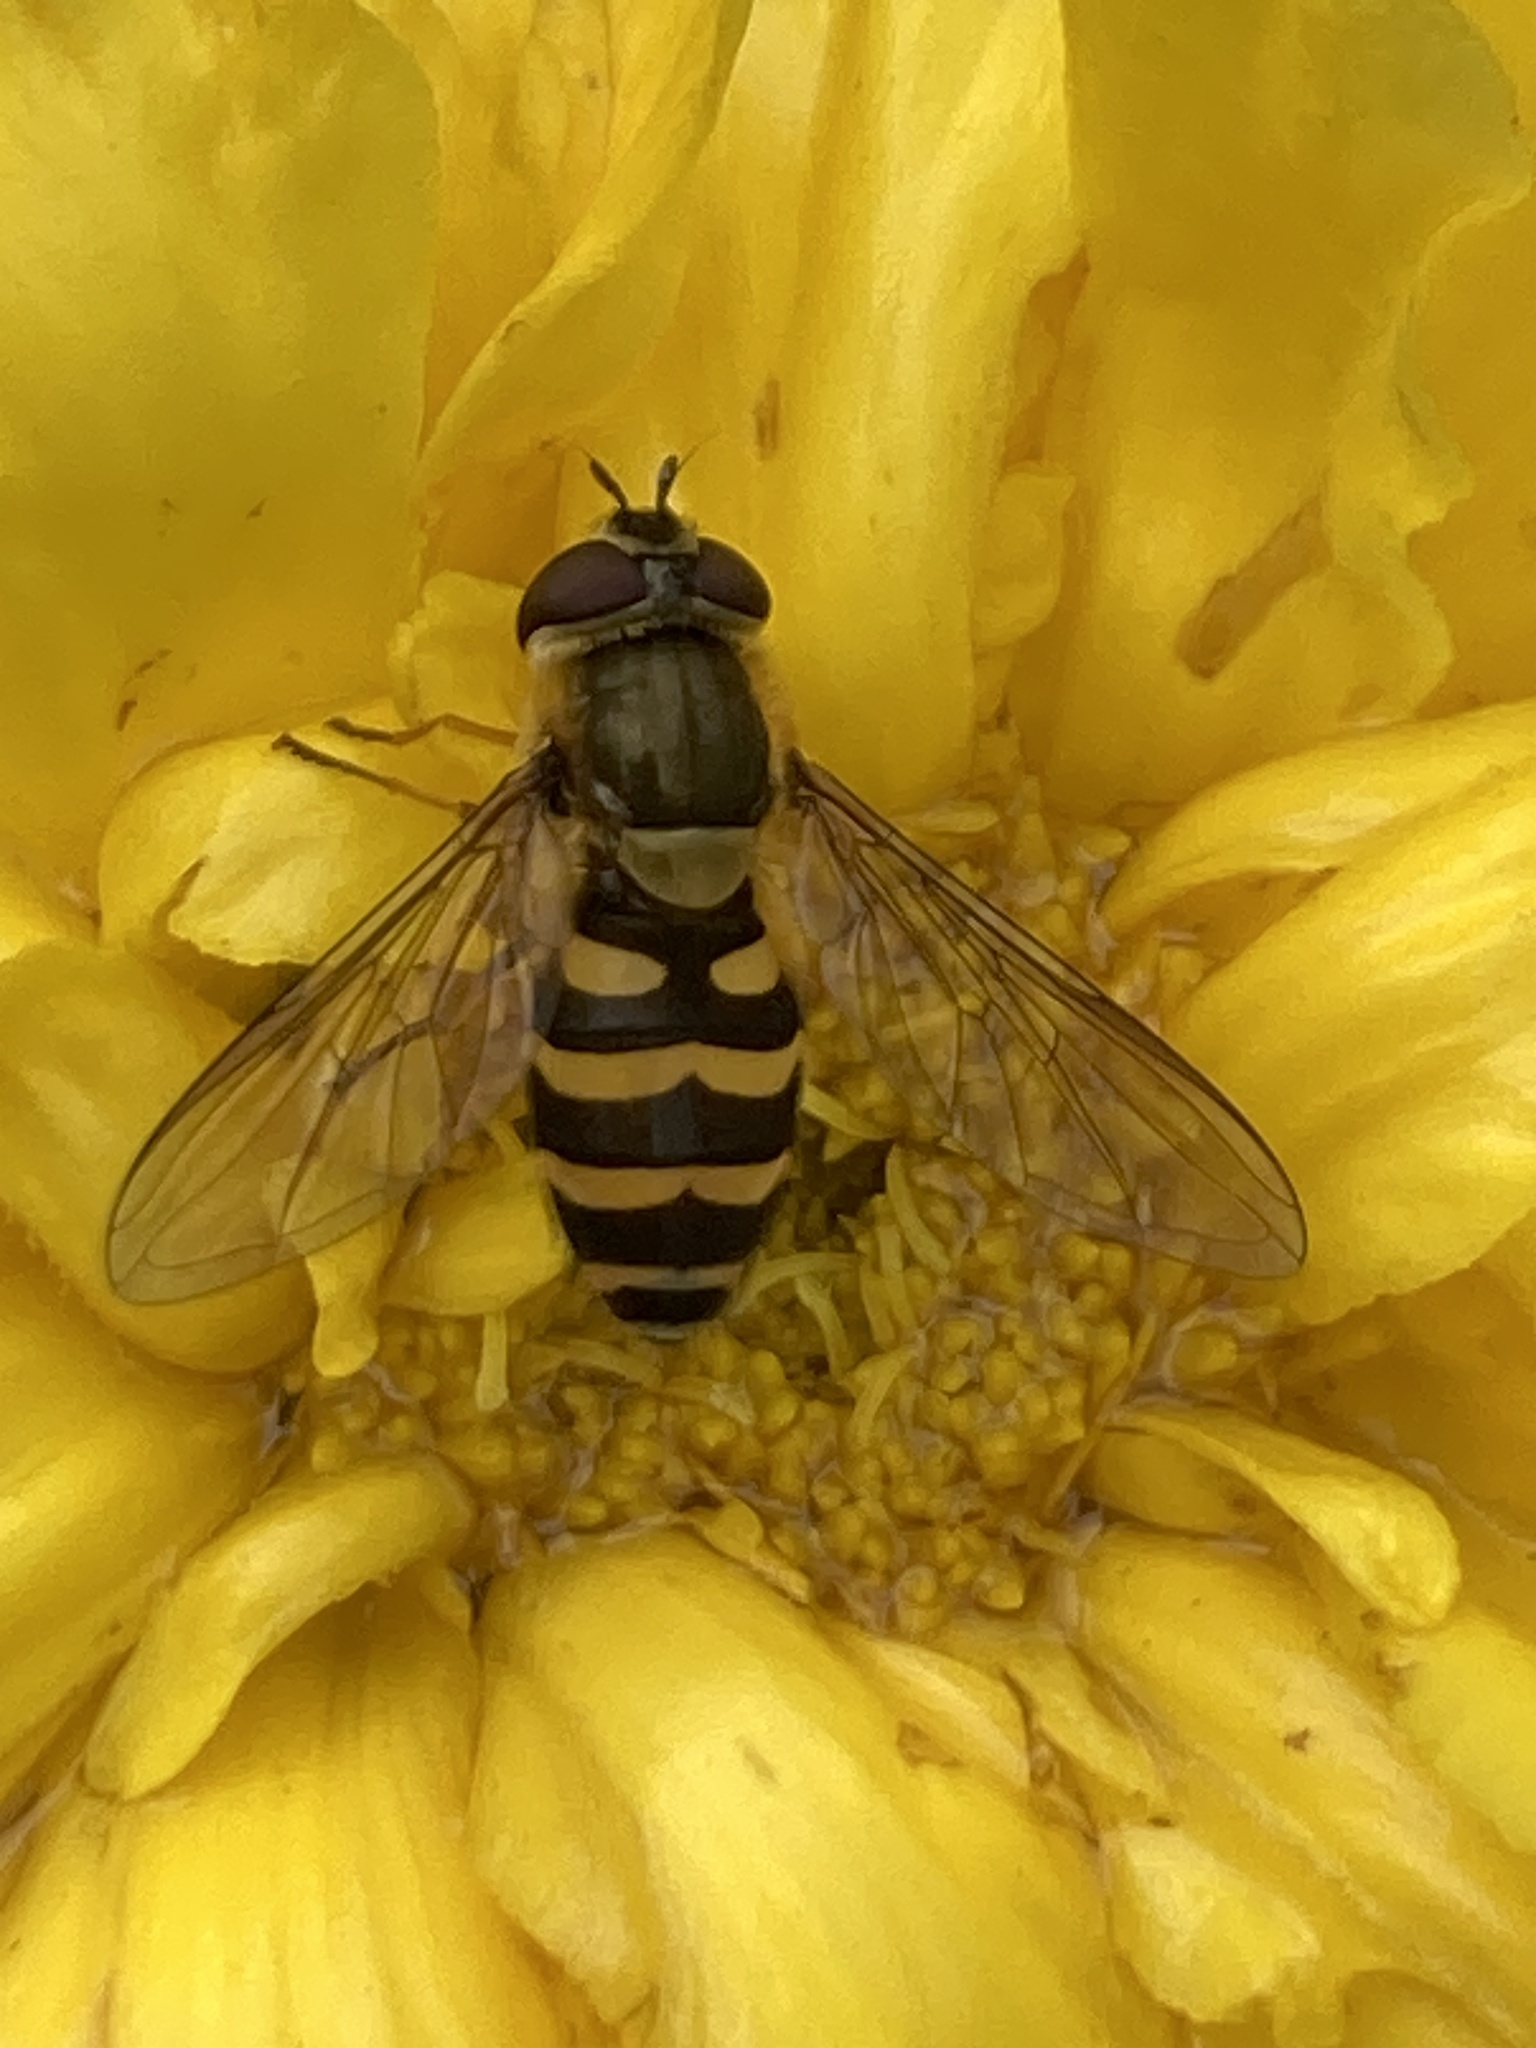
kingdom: Animalia
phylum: Arthropoda
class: Insecta
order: Diptera
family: Syrphidae
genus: Syrphus
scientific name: Syrphus ribesii
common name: Common flower fly
